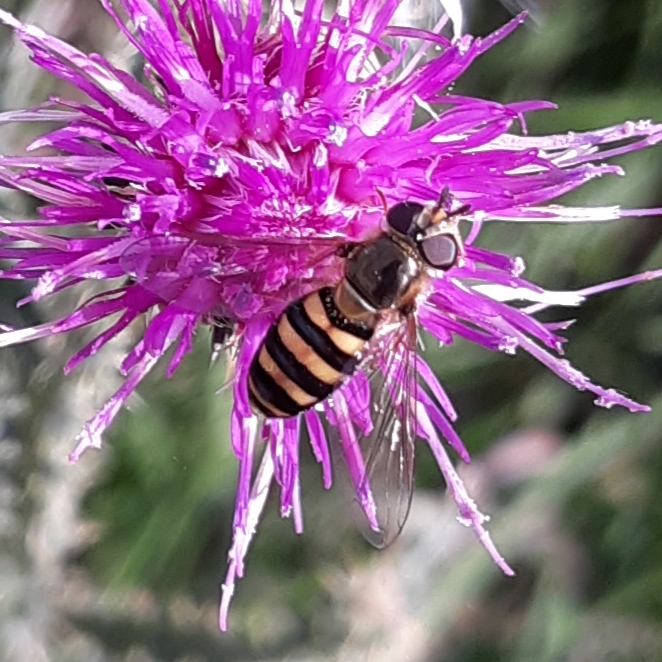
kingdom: Animalia
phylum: Arthropoda
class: Insecta
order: Diptera
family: Syrphidae
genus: Eupeodes
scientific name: Eupeodes
